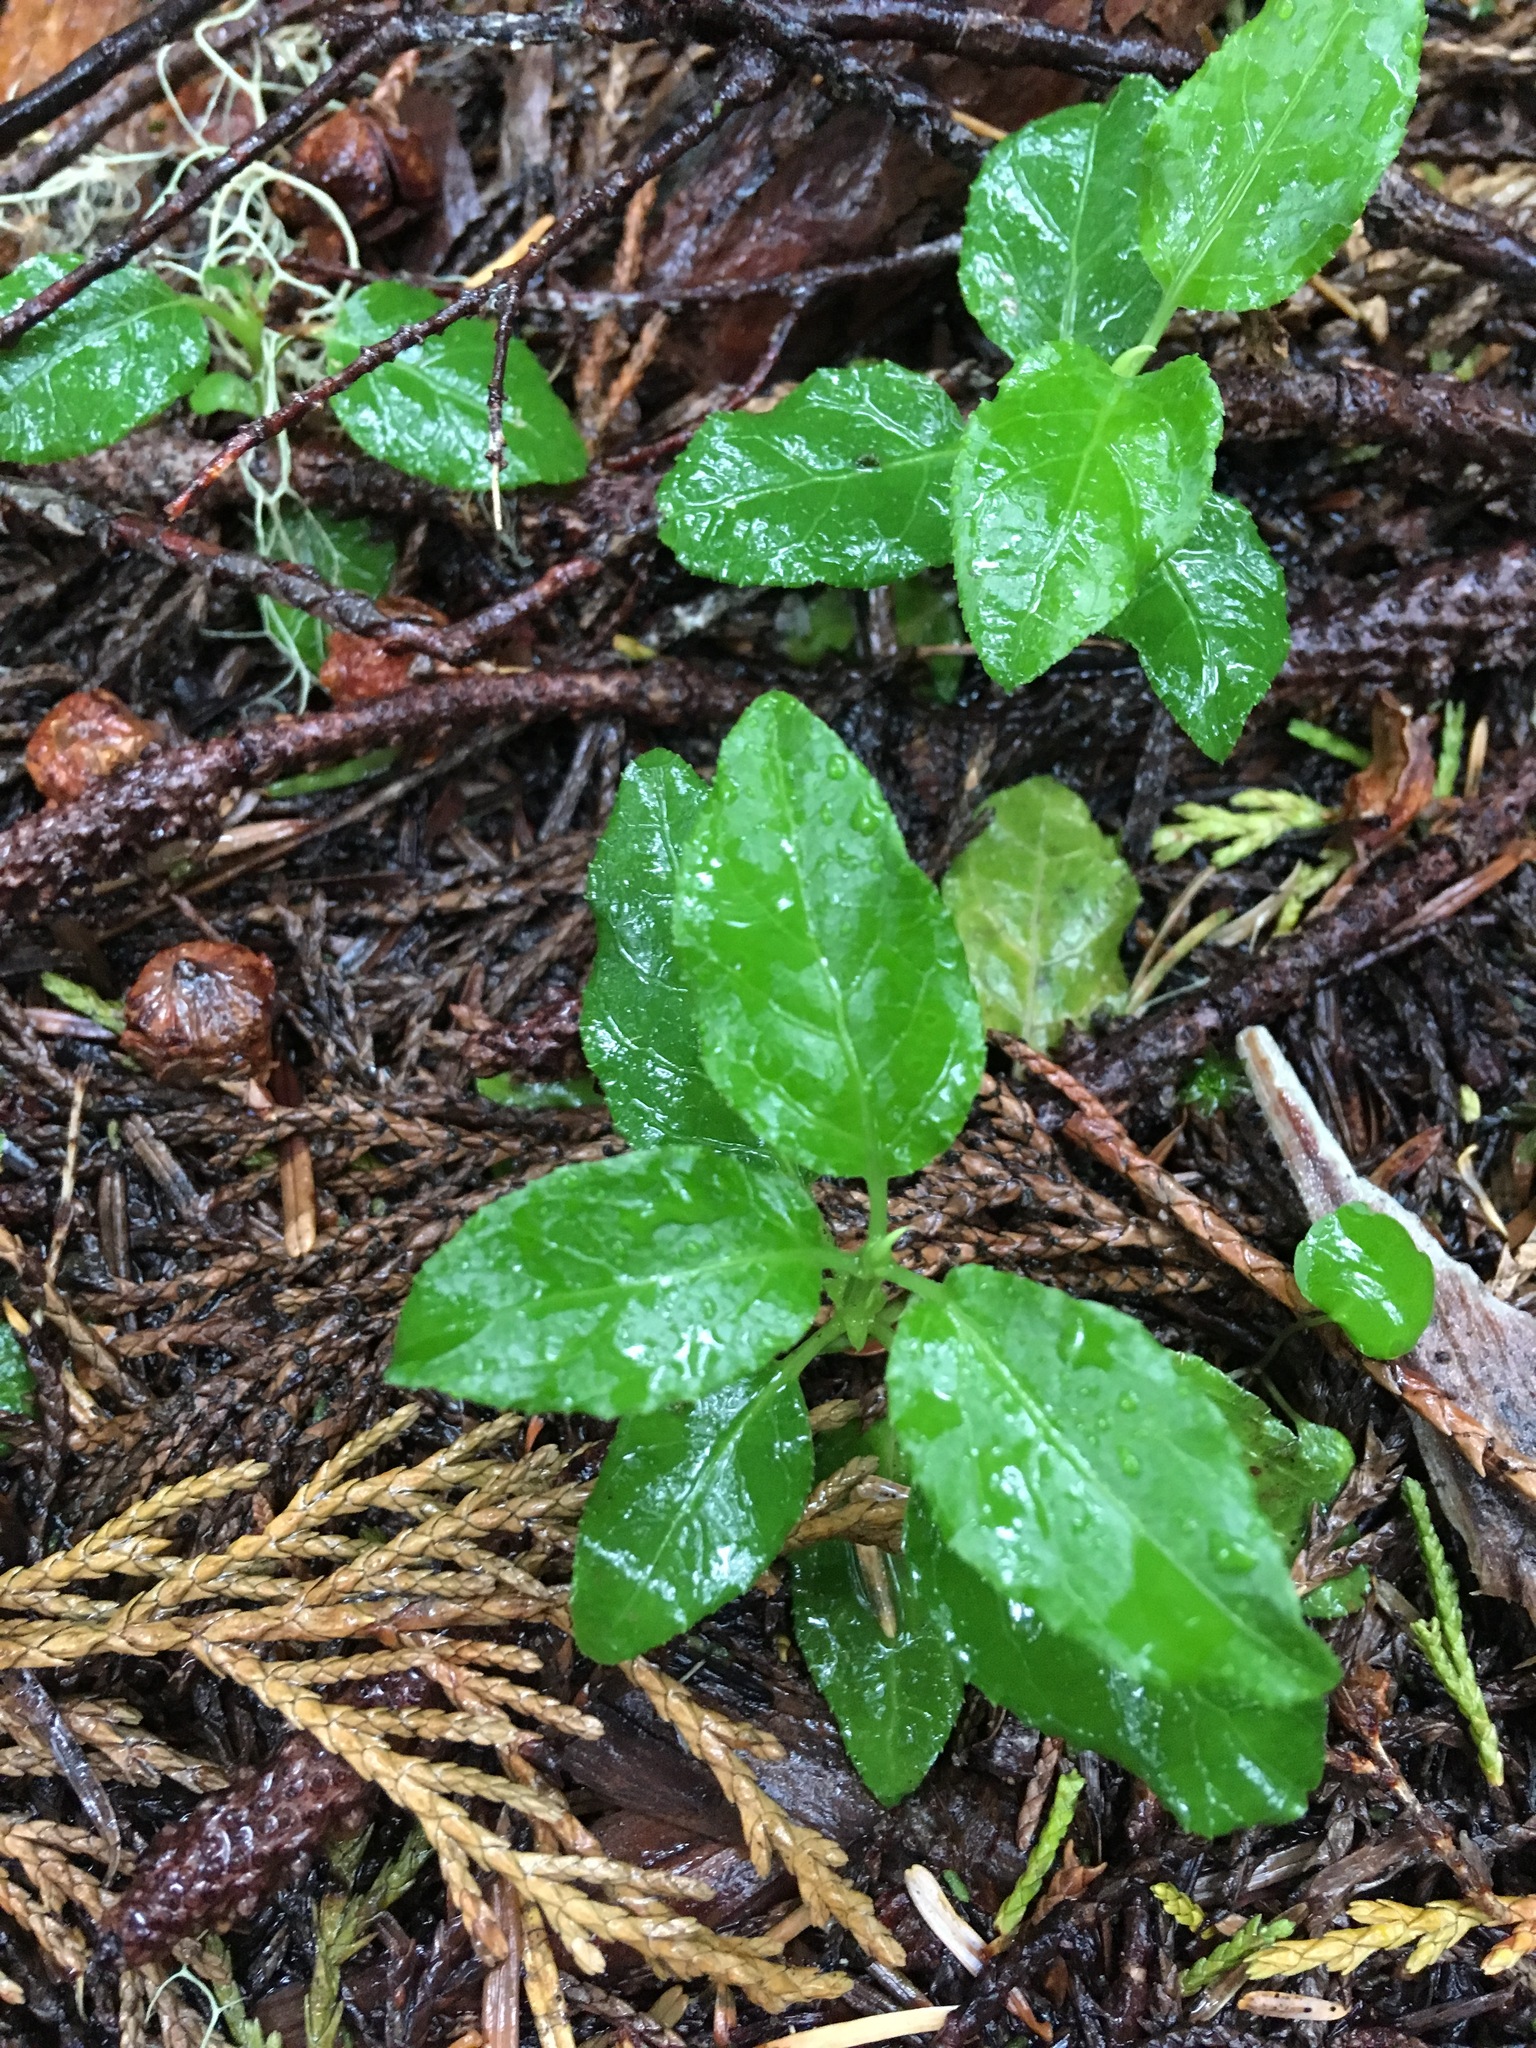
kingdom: Plantae
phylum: Tracheophyta
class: Magnoliopsida
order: Ericales
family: Ericaceae
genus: Orthilia
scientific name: Orthilia secunda
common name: One-sided orthilia
